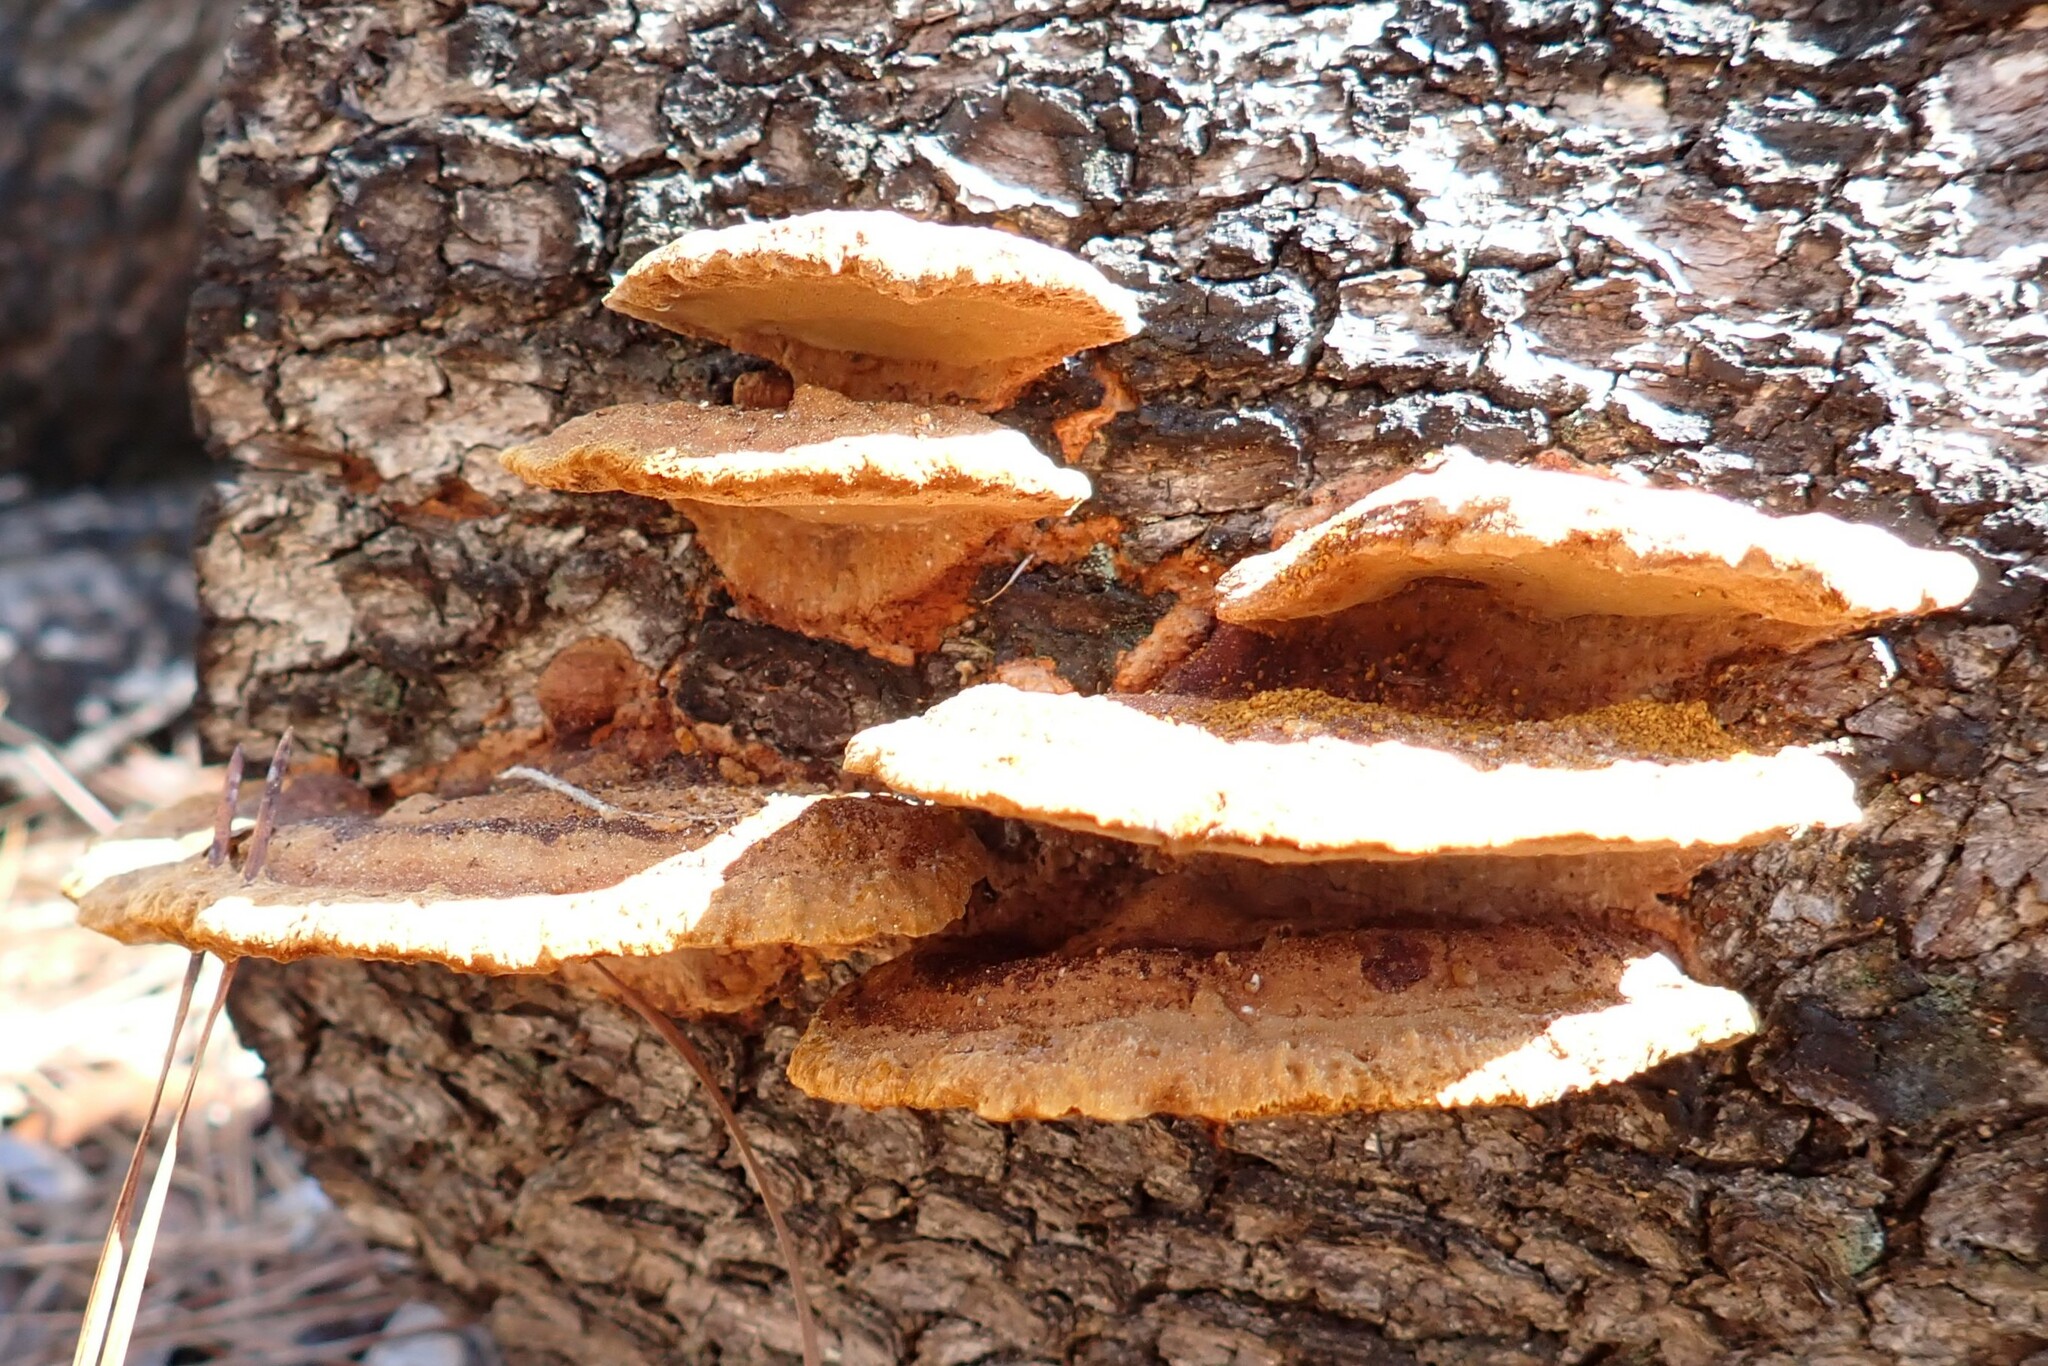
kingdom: Fungi
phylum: Basidiomycota
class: Agaricomycetes
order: Hymenochaetales
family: Hymenochaetaceae
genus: Phellinus
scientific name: Phellinus gilvus
